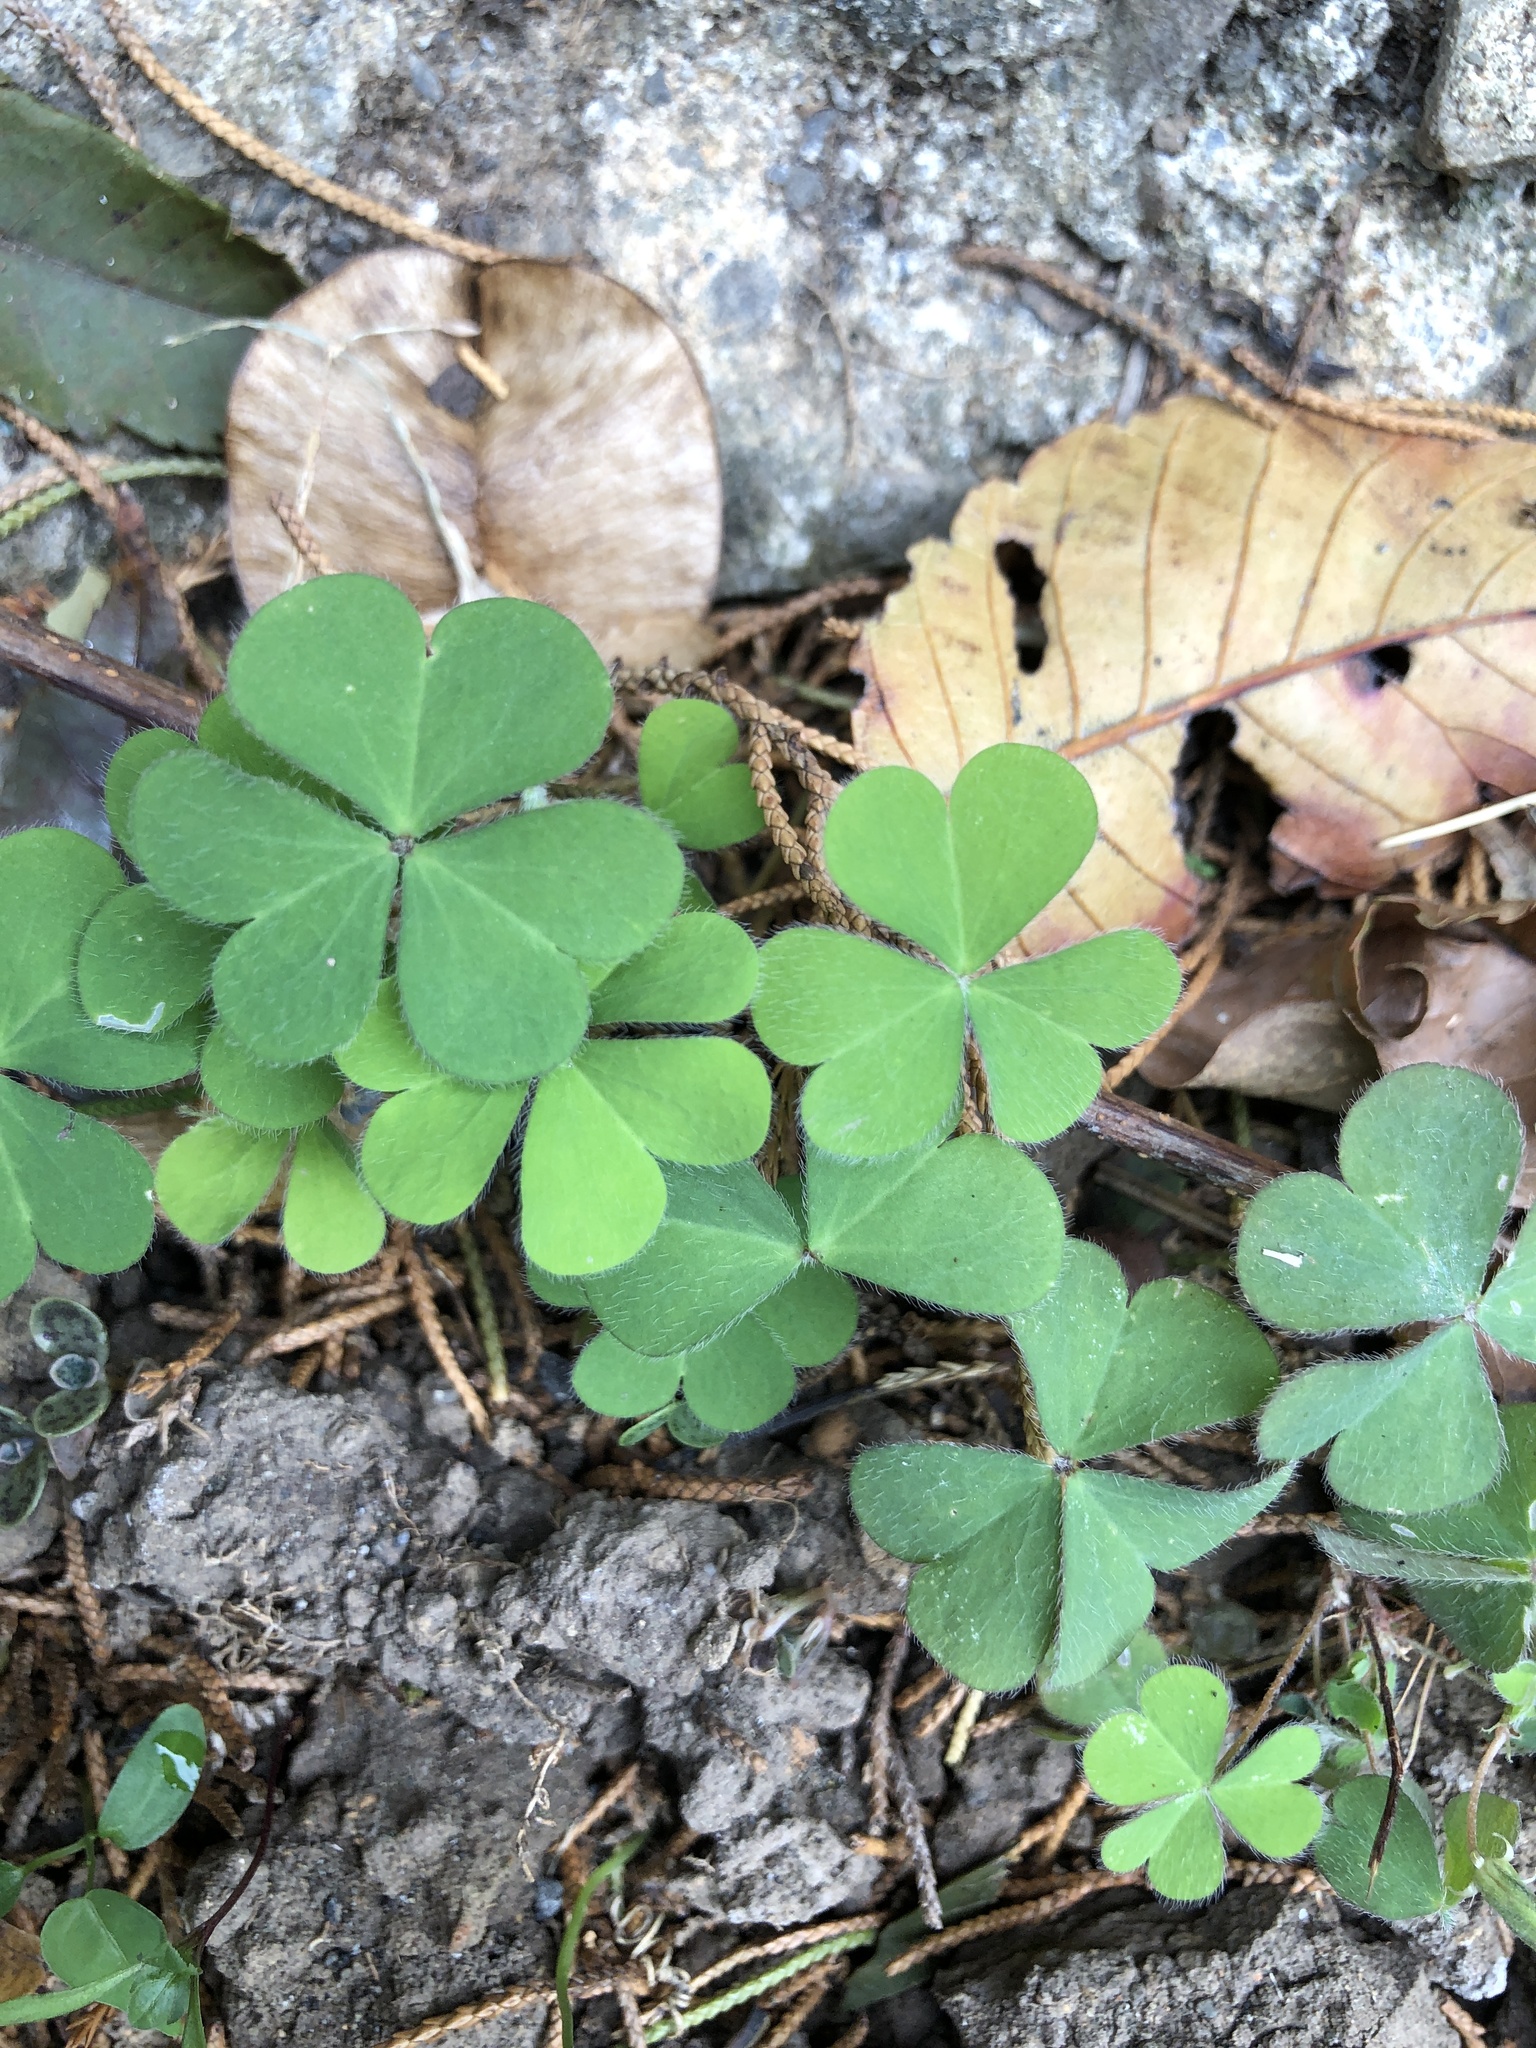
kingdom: Plantae
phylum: Tracheophyta
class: Magnoliopsida
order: Oxalidales
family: Oxalidaceae
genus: Oxalis
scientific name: Oxalis corniculata
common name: Procumbent yellow-sorrel
